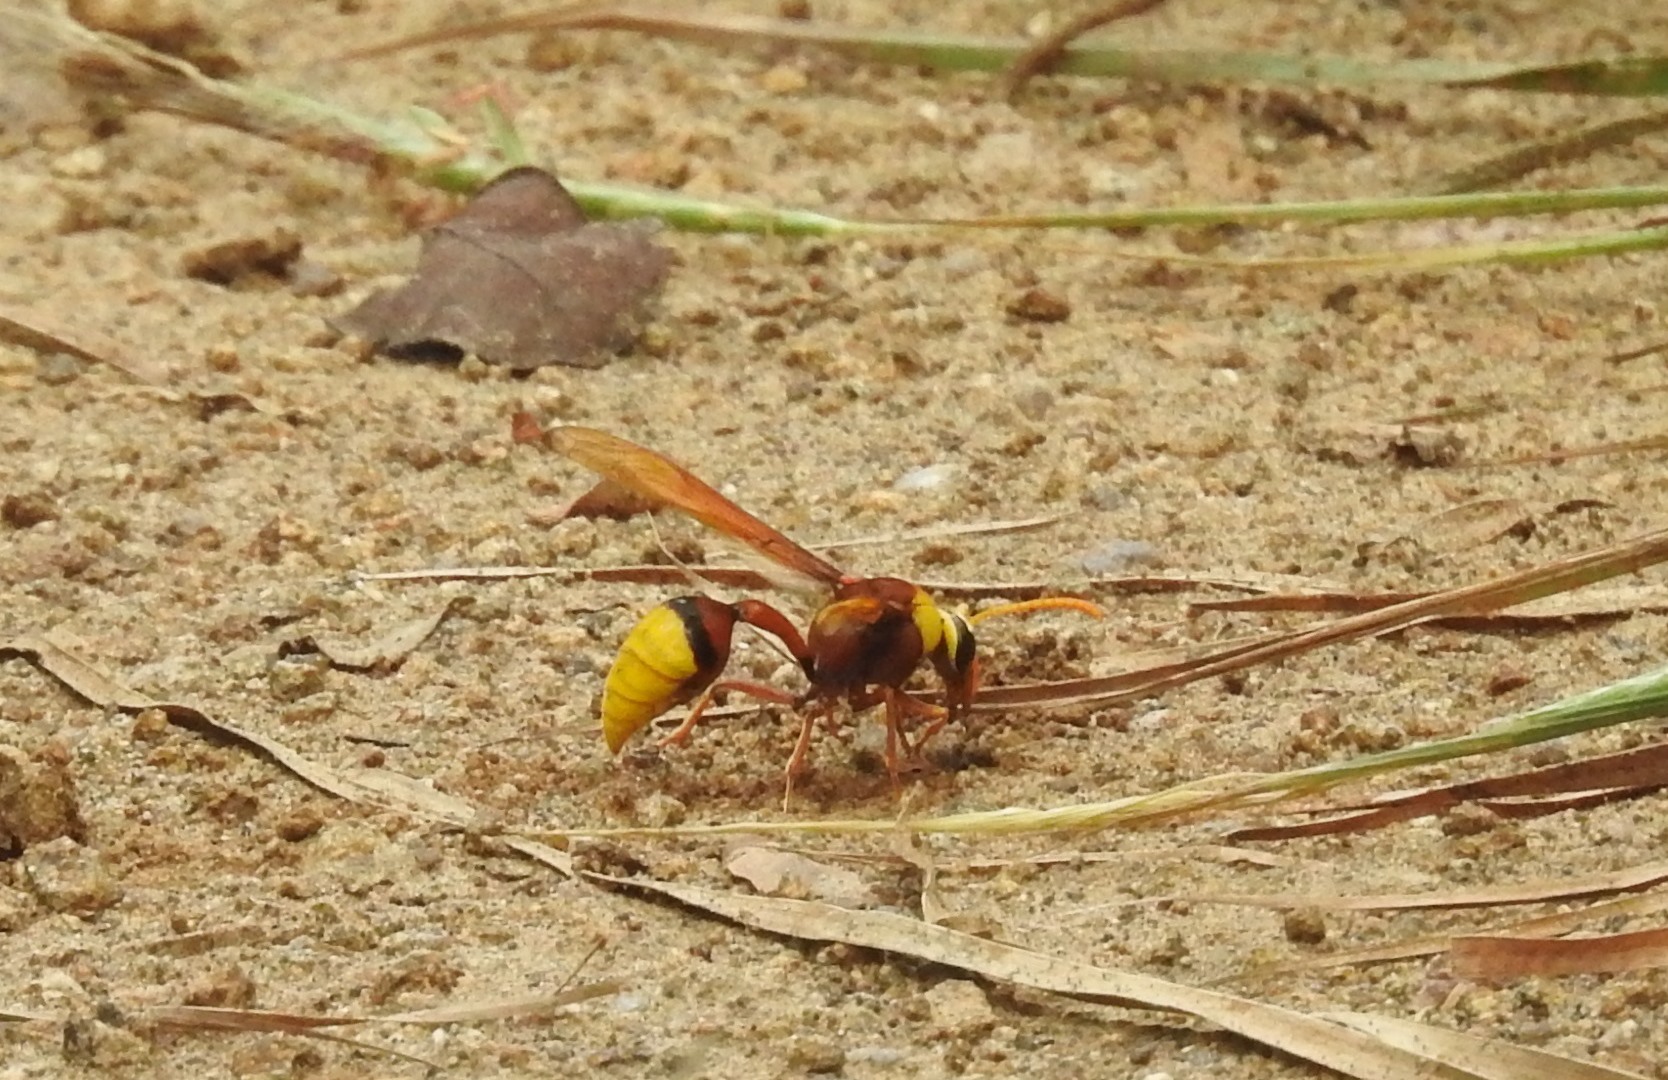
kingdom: Animalia
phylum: Arthropoda
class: Insecta
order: Hymenoptera
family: Eumenidae
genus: Delta
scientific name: Delta pyriforme
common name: Wasp
